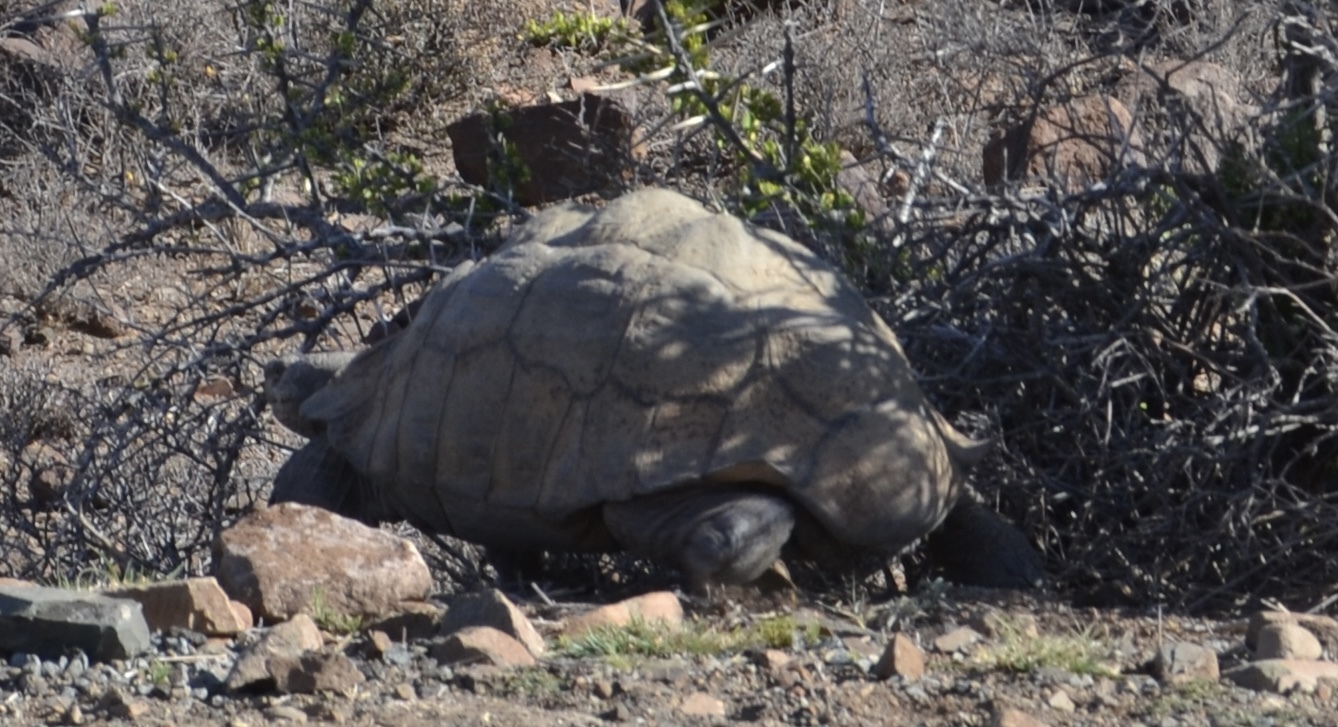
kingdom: Animalia
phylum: Chordata
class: Testudines
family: Testudinidae
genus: Stigmochelys
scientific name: Stigmochelys pardalis
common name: Leopard tortoise
